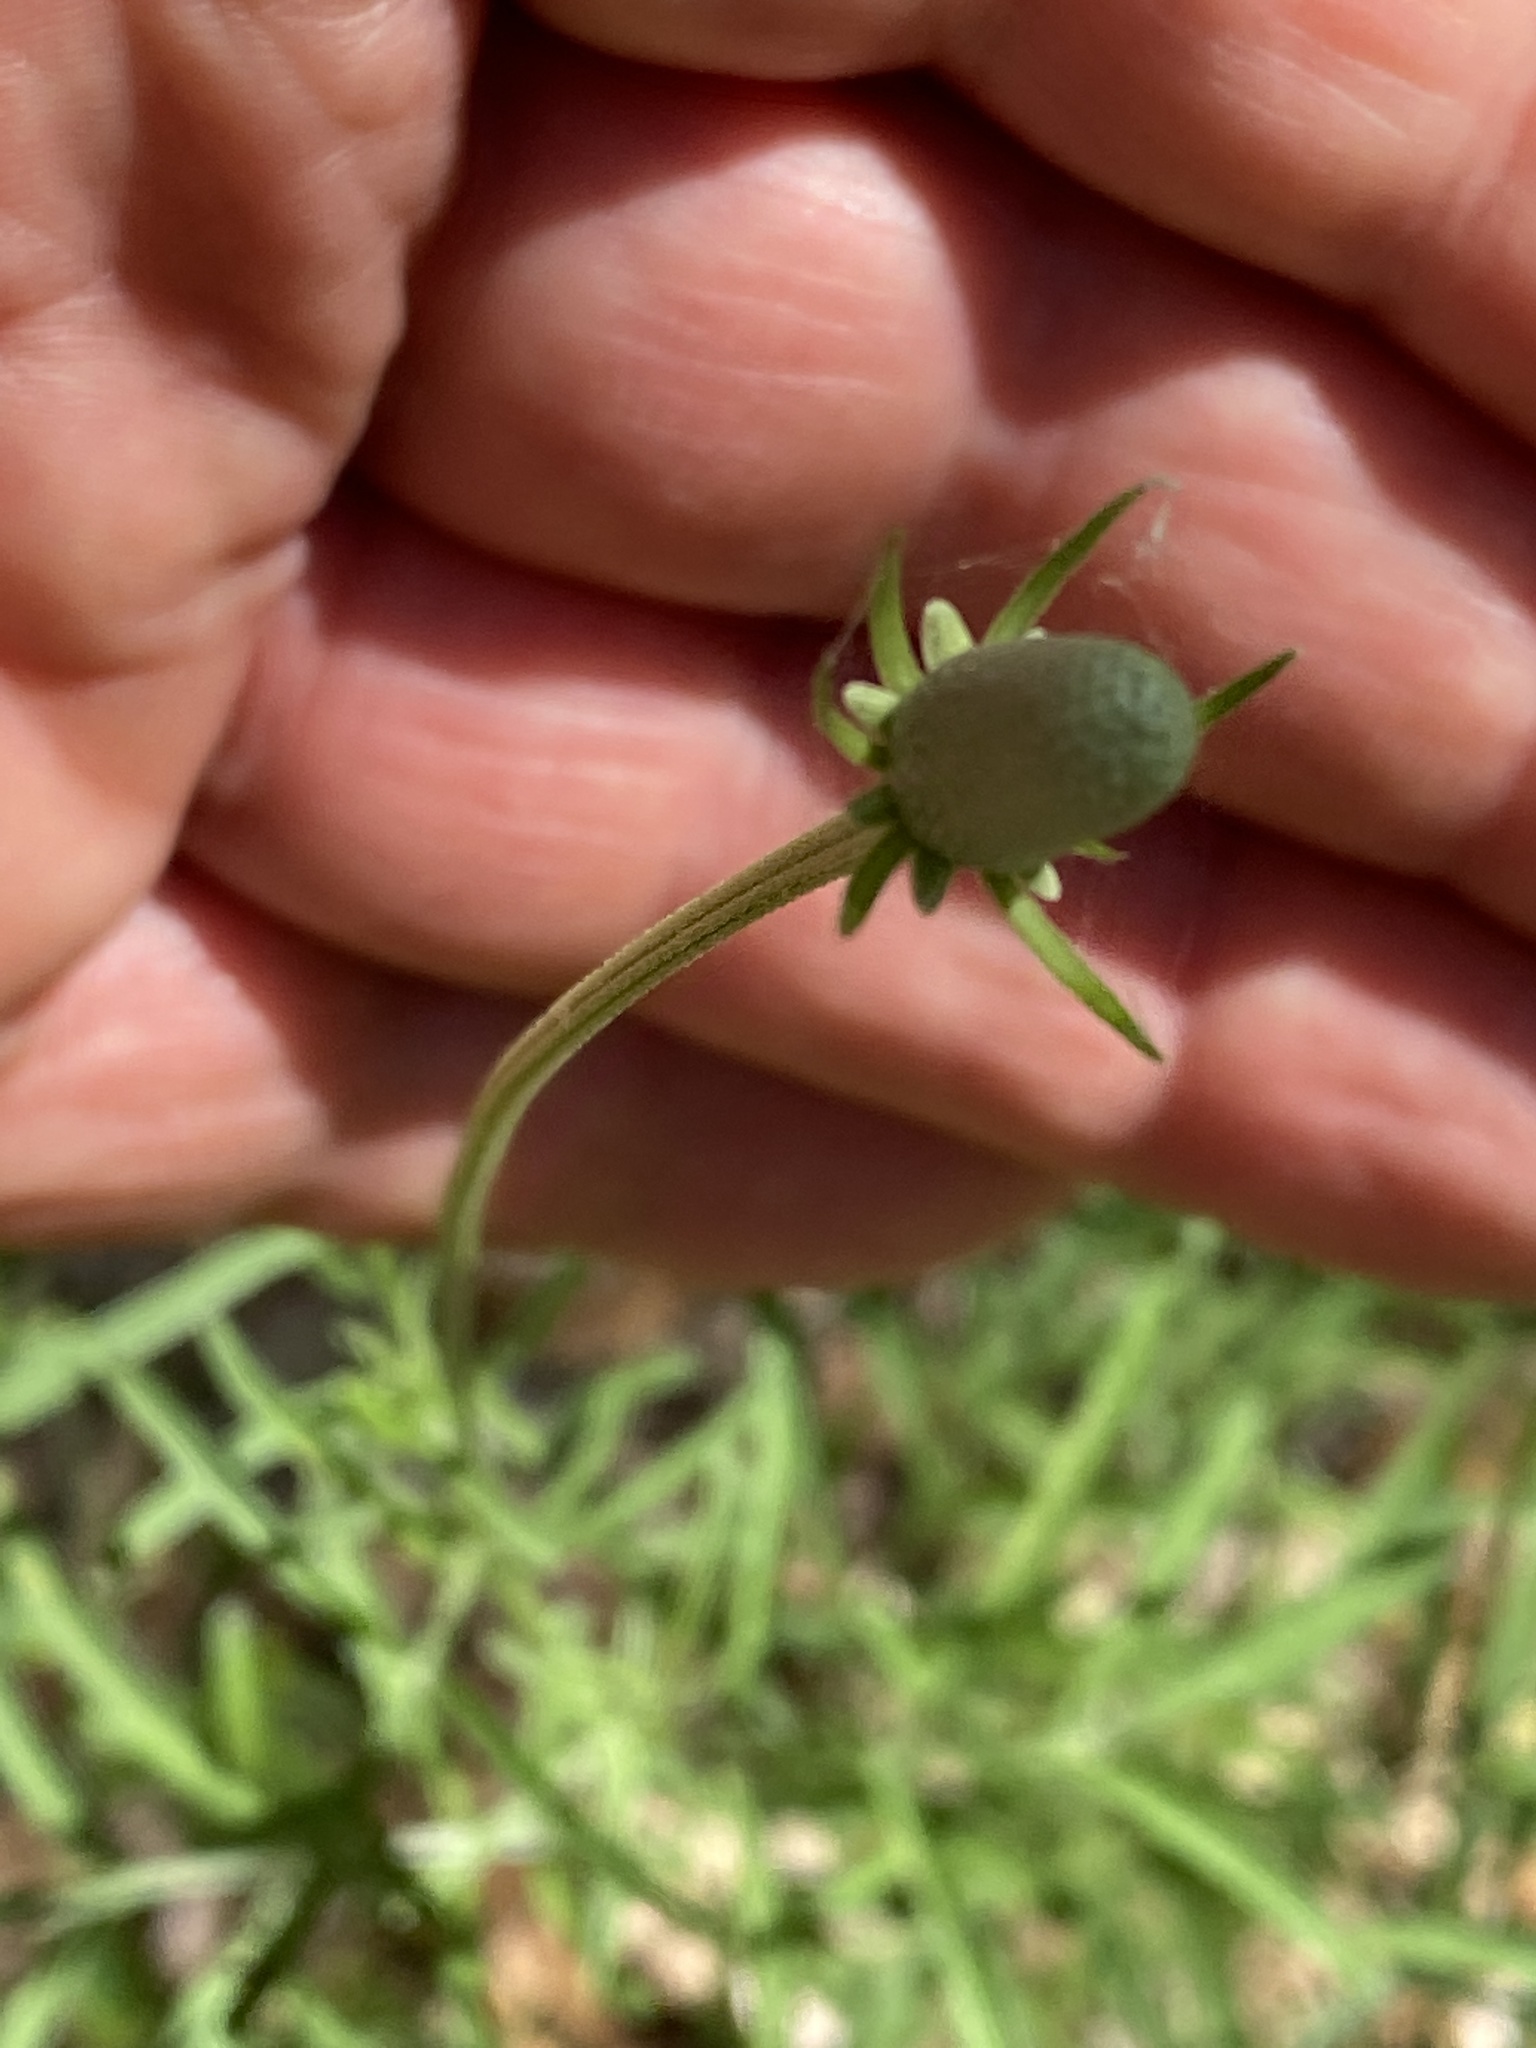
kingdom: Plantae
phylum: Tracheophyta
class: Magnoliopsida
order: Asterales
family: Asteraceae
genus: Ratibida
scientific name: Ratibida columnifera
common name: Prairie coneflower
